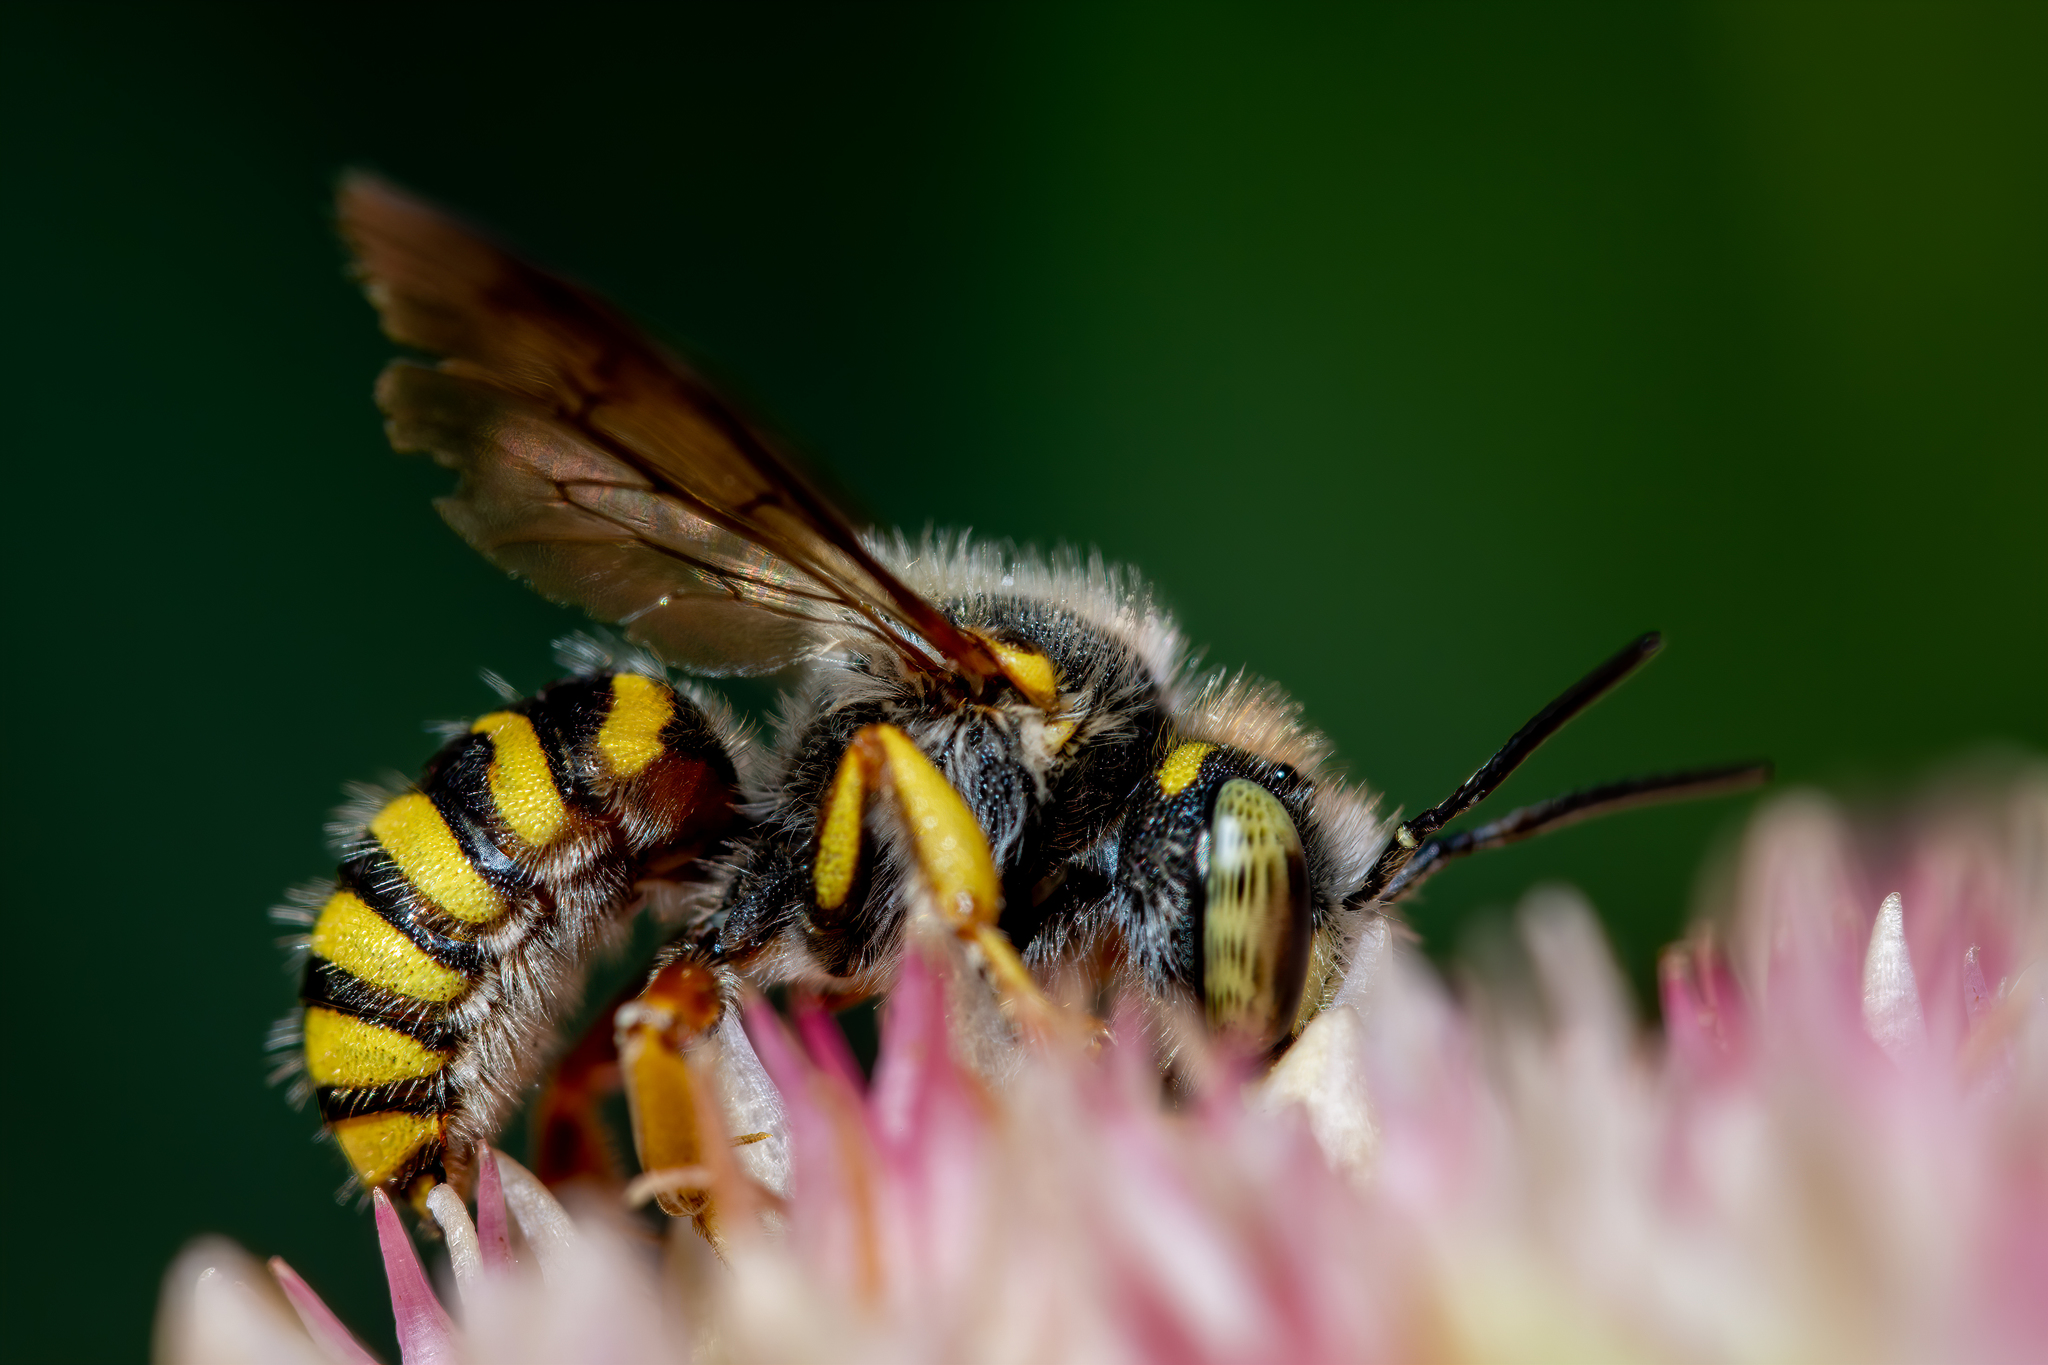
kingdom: Animalia
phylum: Arthropoda
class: Insecta
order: Hymenoptera
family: Megachilidae
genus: Anthidium
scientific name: Anthidium oblongatum
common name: Oblong wool carder bee
